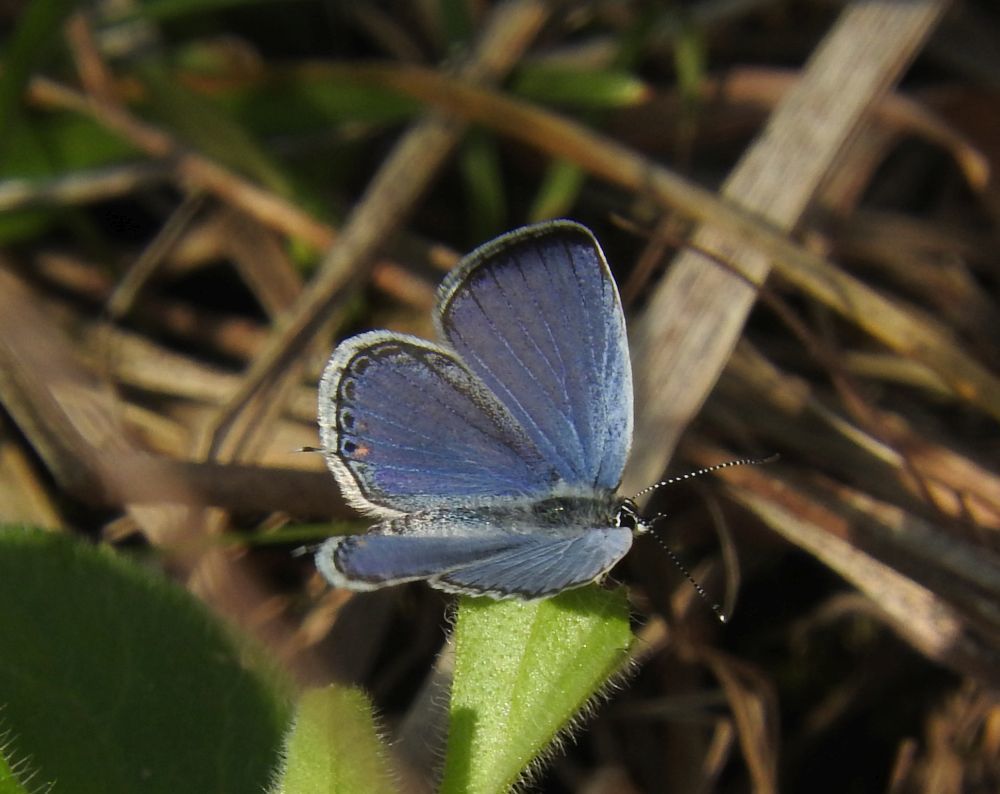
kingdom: Animalia
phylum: Arthropoda
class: Insecta
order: Lepidoptera
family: Lycaenidae
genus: Elkalyce
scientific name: Elkalyce comyntas
